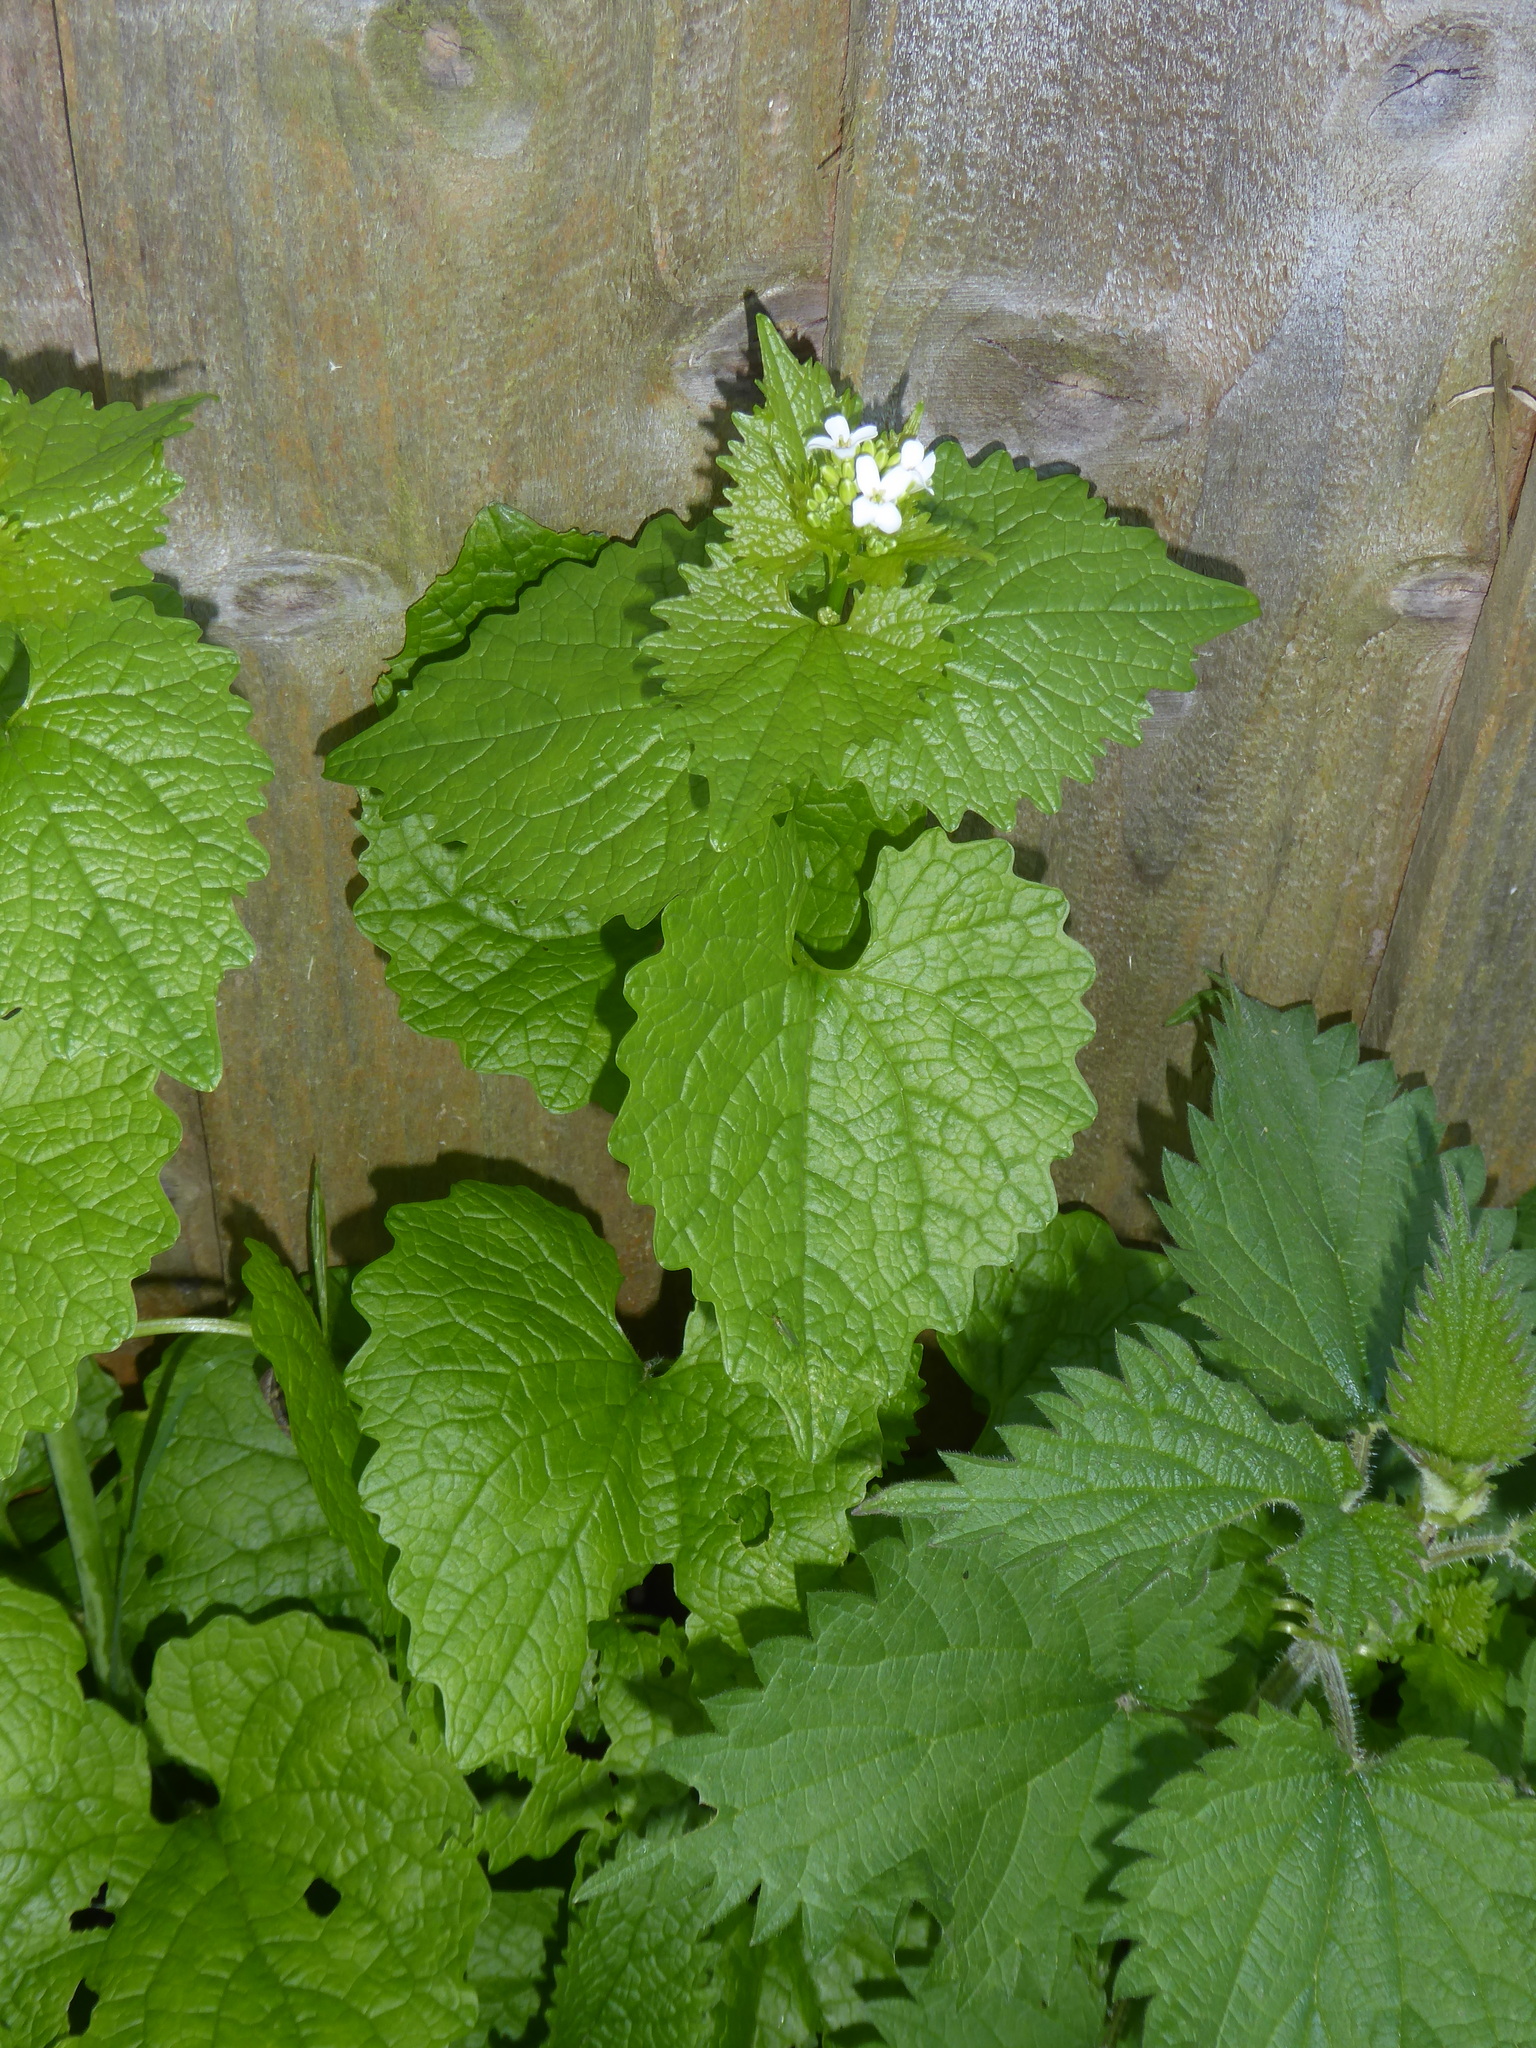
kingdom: Plantae
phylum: Tracheophyta
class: Magnoliopsida
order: Brassicales
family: Brassicaceae
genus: Alliaria
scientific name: Alliaria petiolata
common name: Garlic mustard
